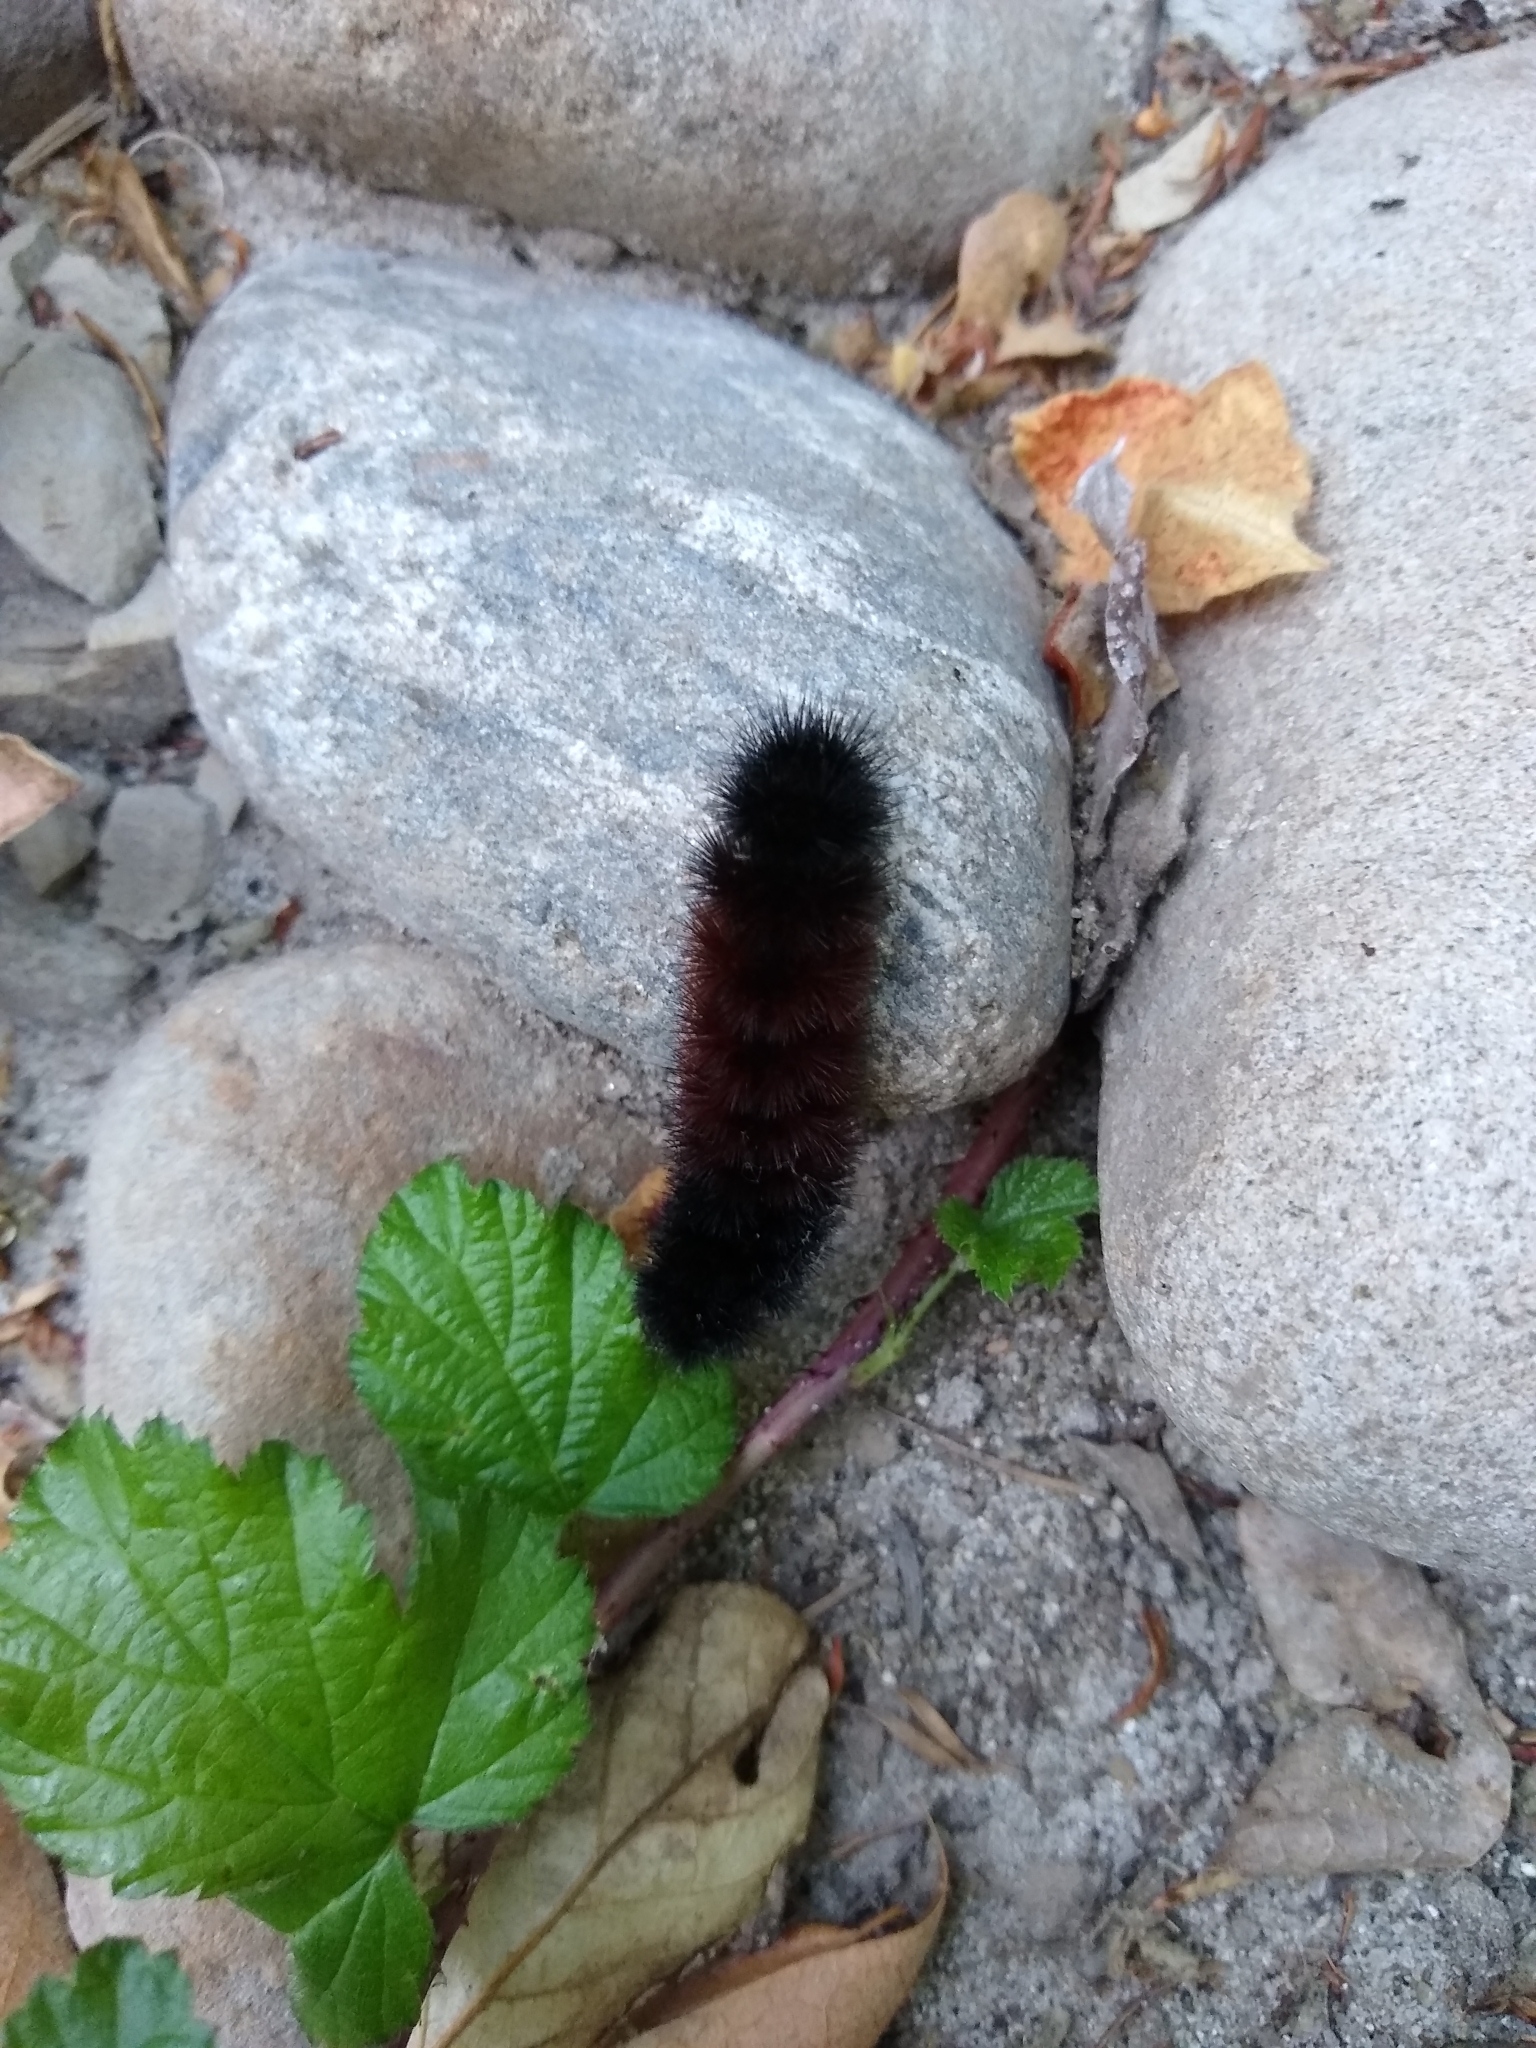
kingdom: Animalia
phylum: Arthropoda
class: Insecta
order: Lepidoptera
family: Erebidae
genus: Pyrrharctia
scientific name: Pyrrharctia isabella
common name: Isabella tiger moth
